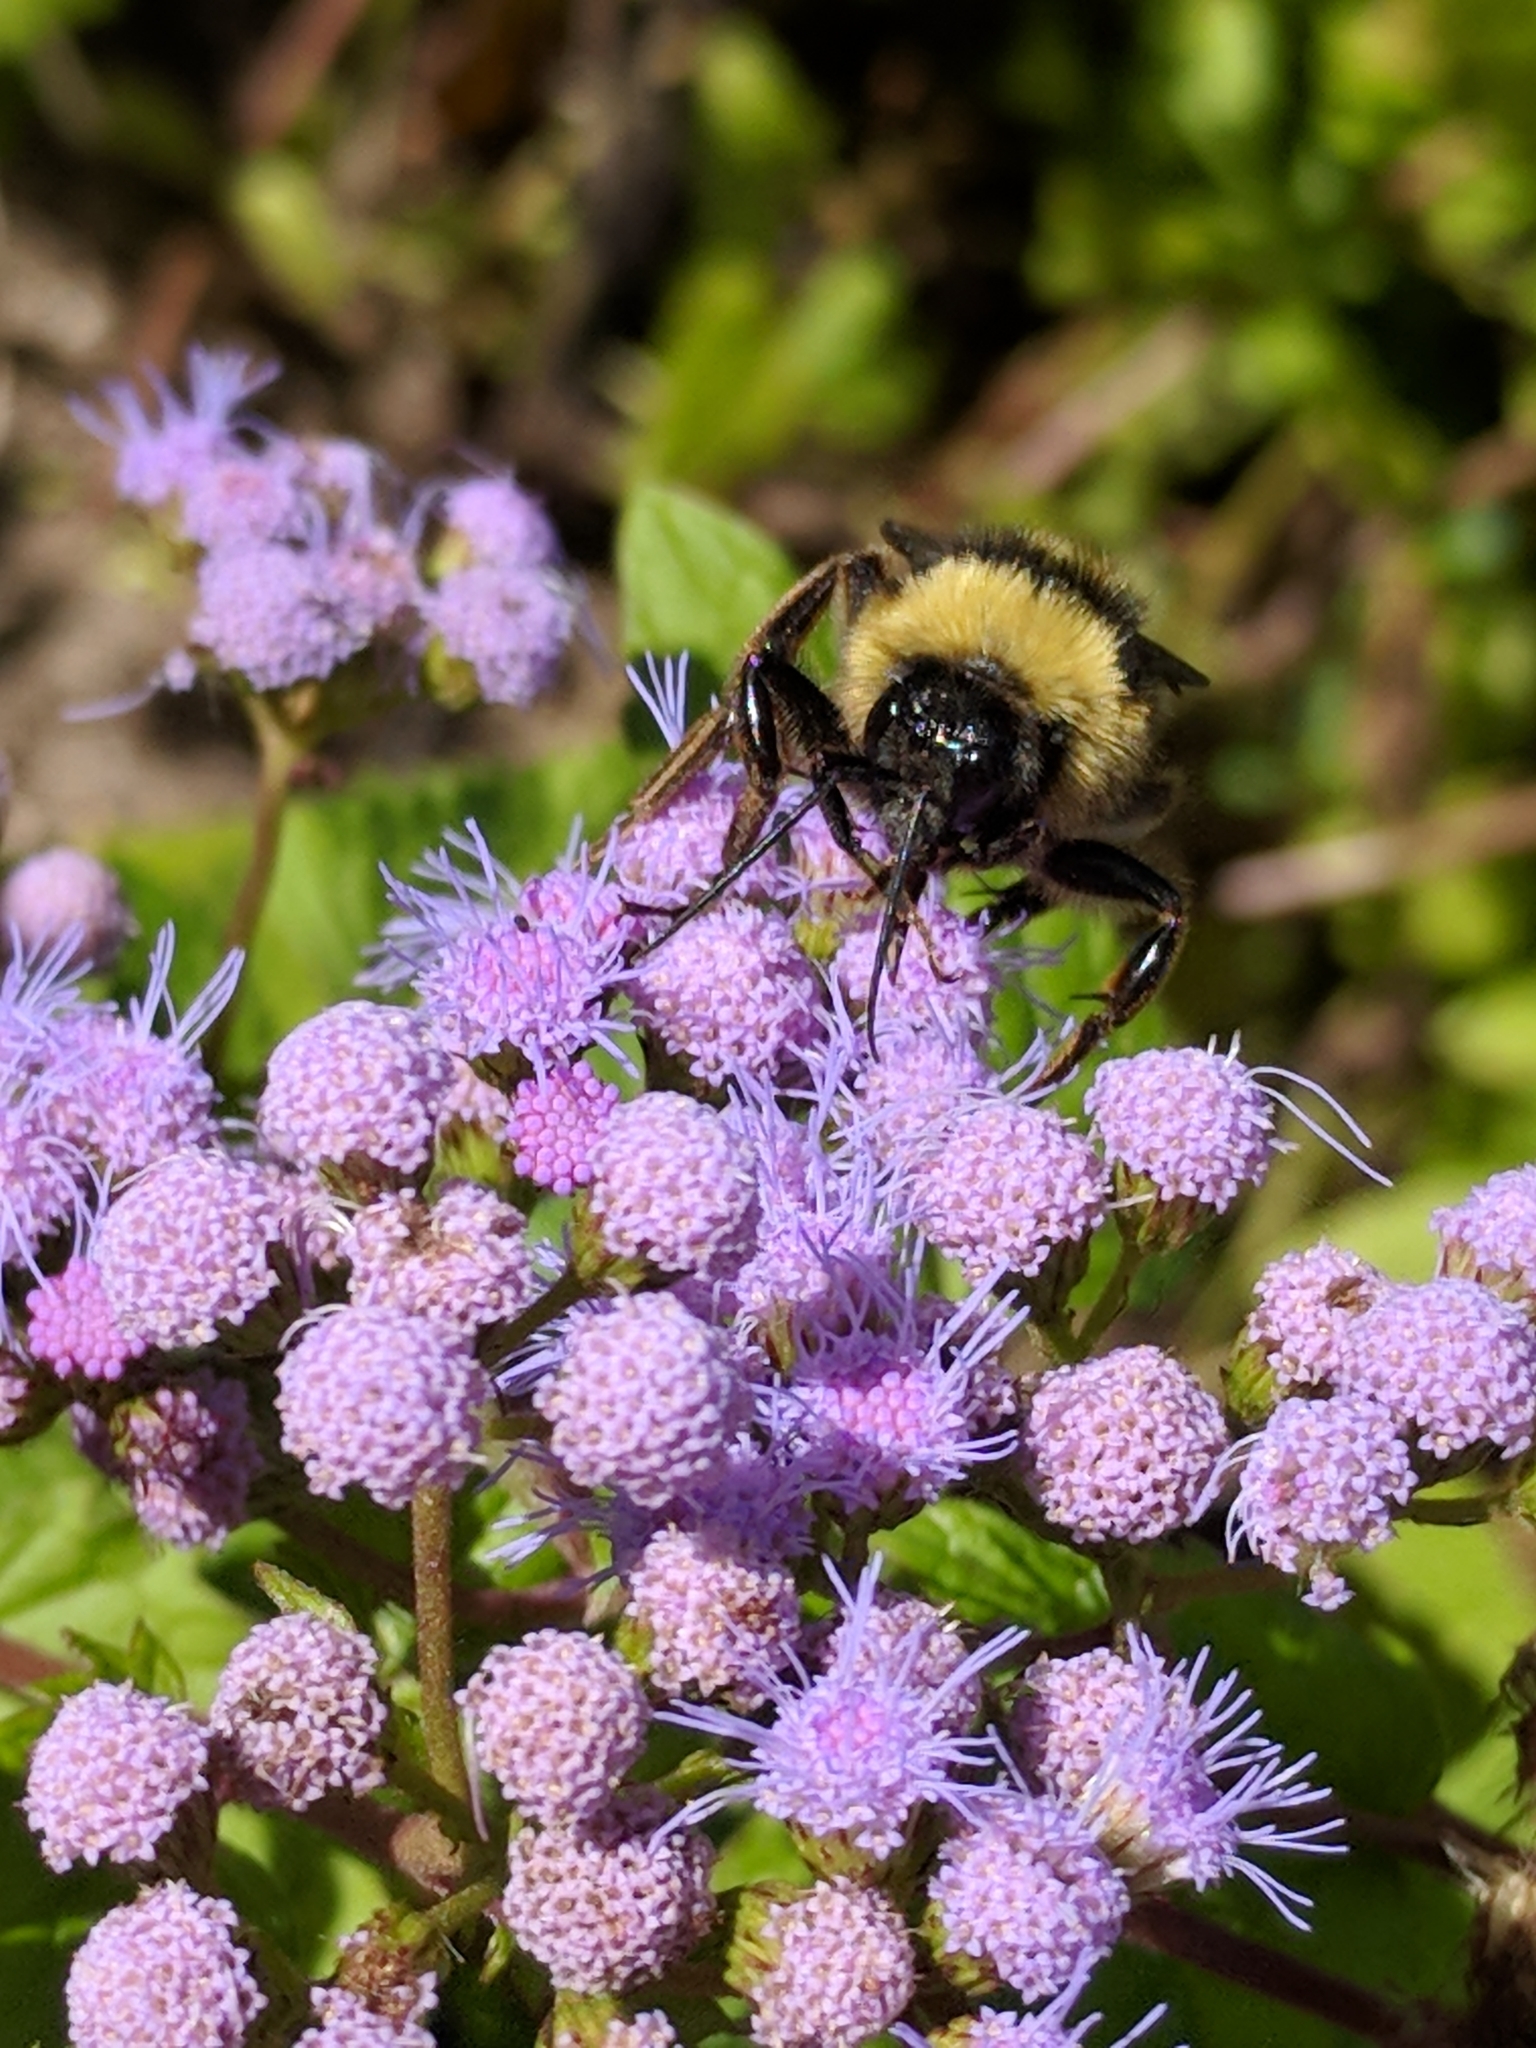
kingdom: Animalia
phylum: Arthropoda
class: Insecta
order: Hymenoptera
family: Apidae
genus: Bombus
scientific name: Bombus pensylvanicus
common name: Bumble bee
